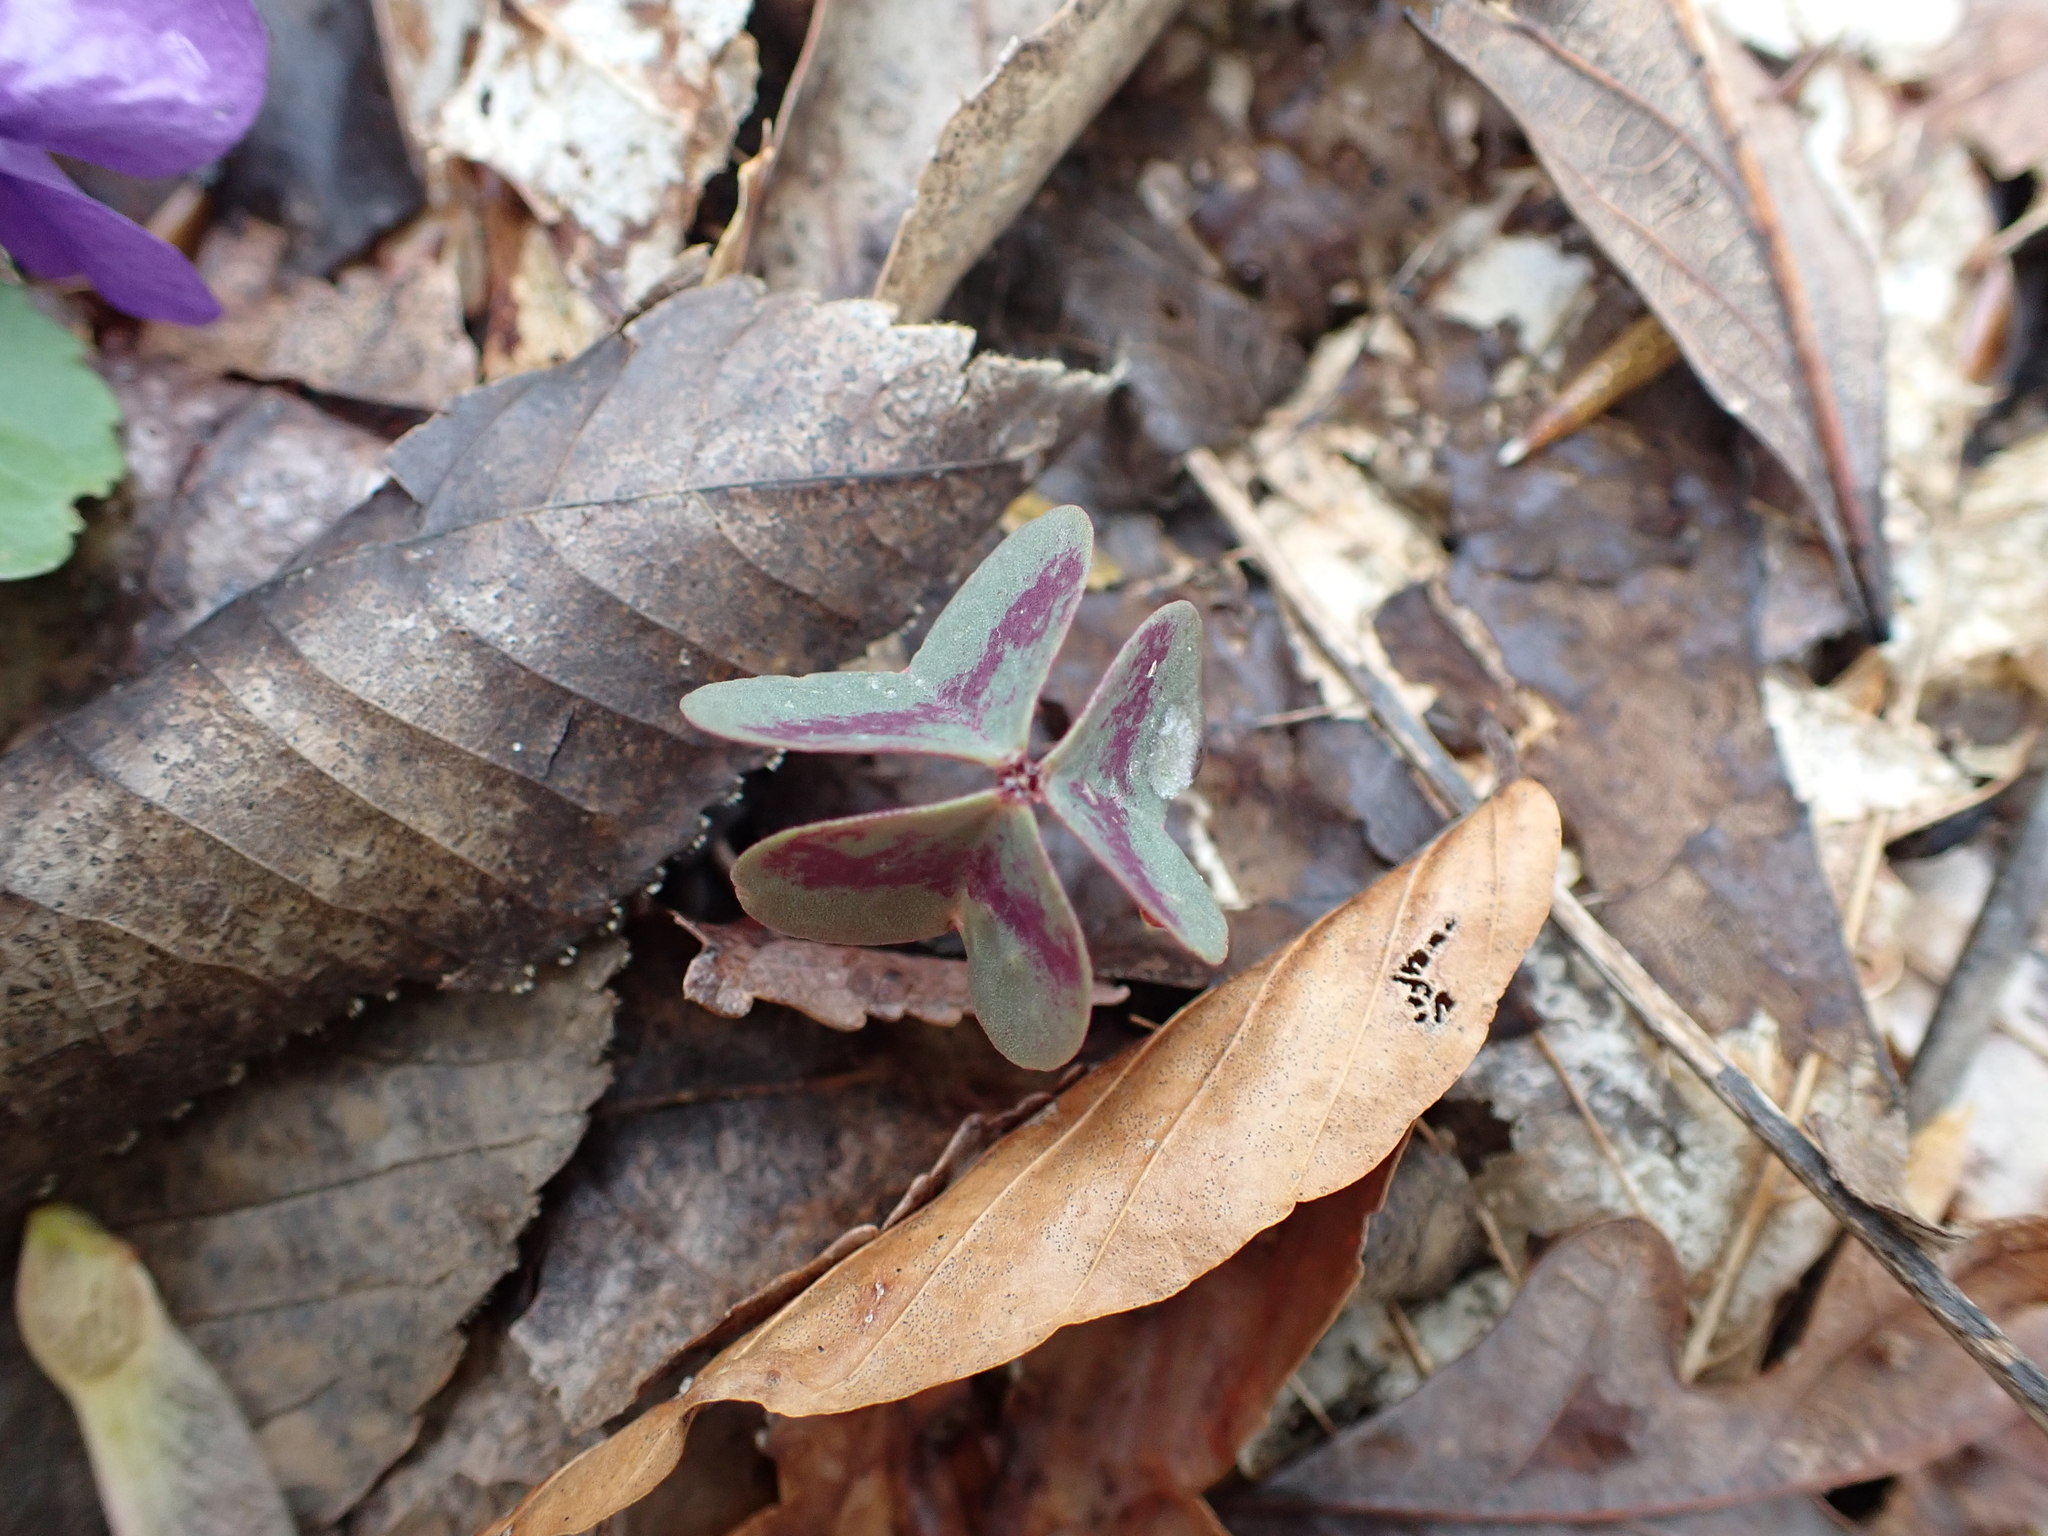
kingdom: Plantae
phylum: Tracheophyta
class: Magnoliopsida
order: Oxalidales
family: Oxalidaceae
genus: Oxalis
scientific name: Oxalis violacea
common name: Violet wood-sorrel
